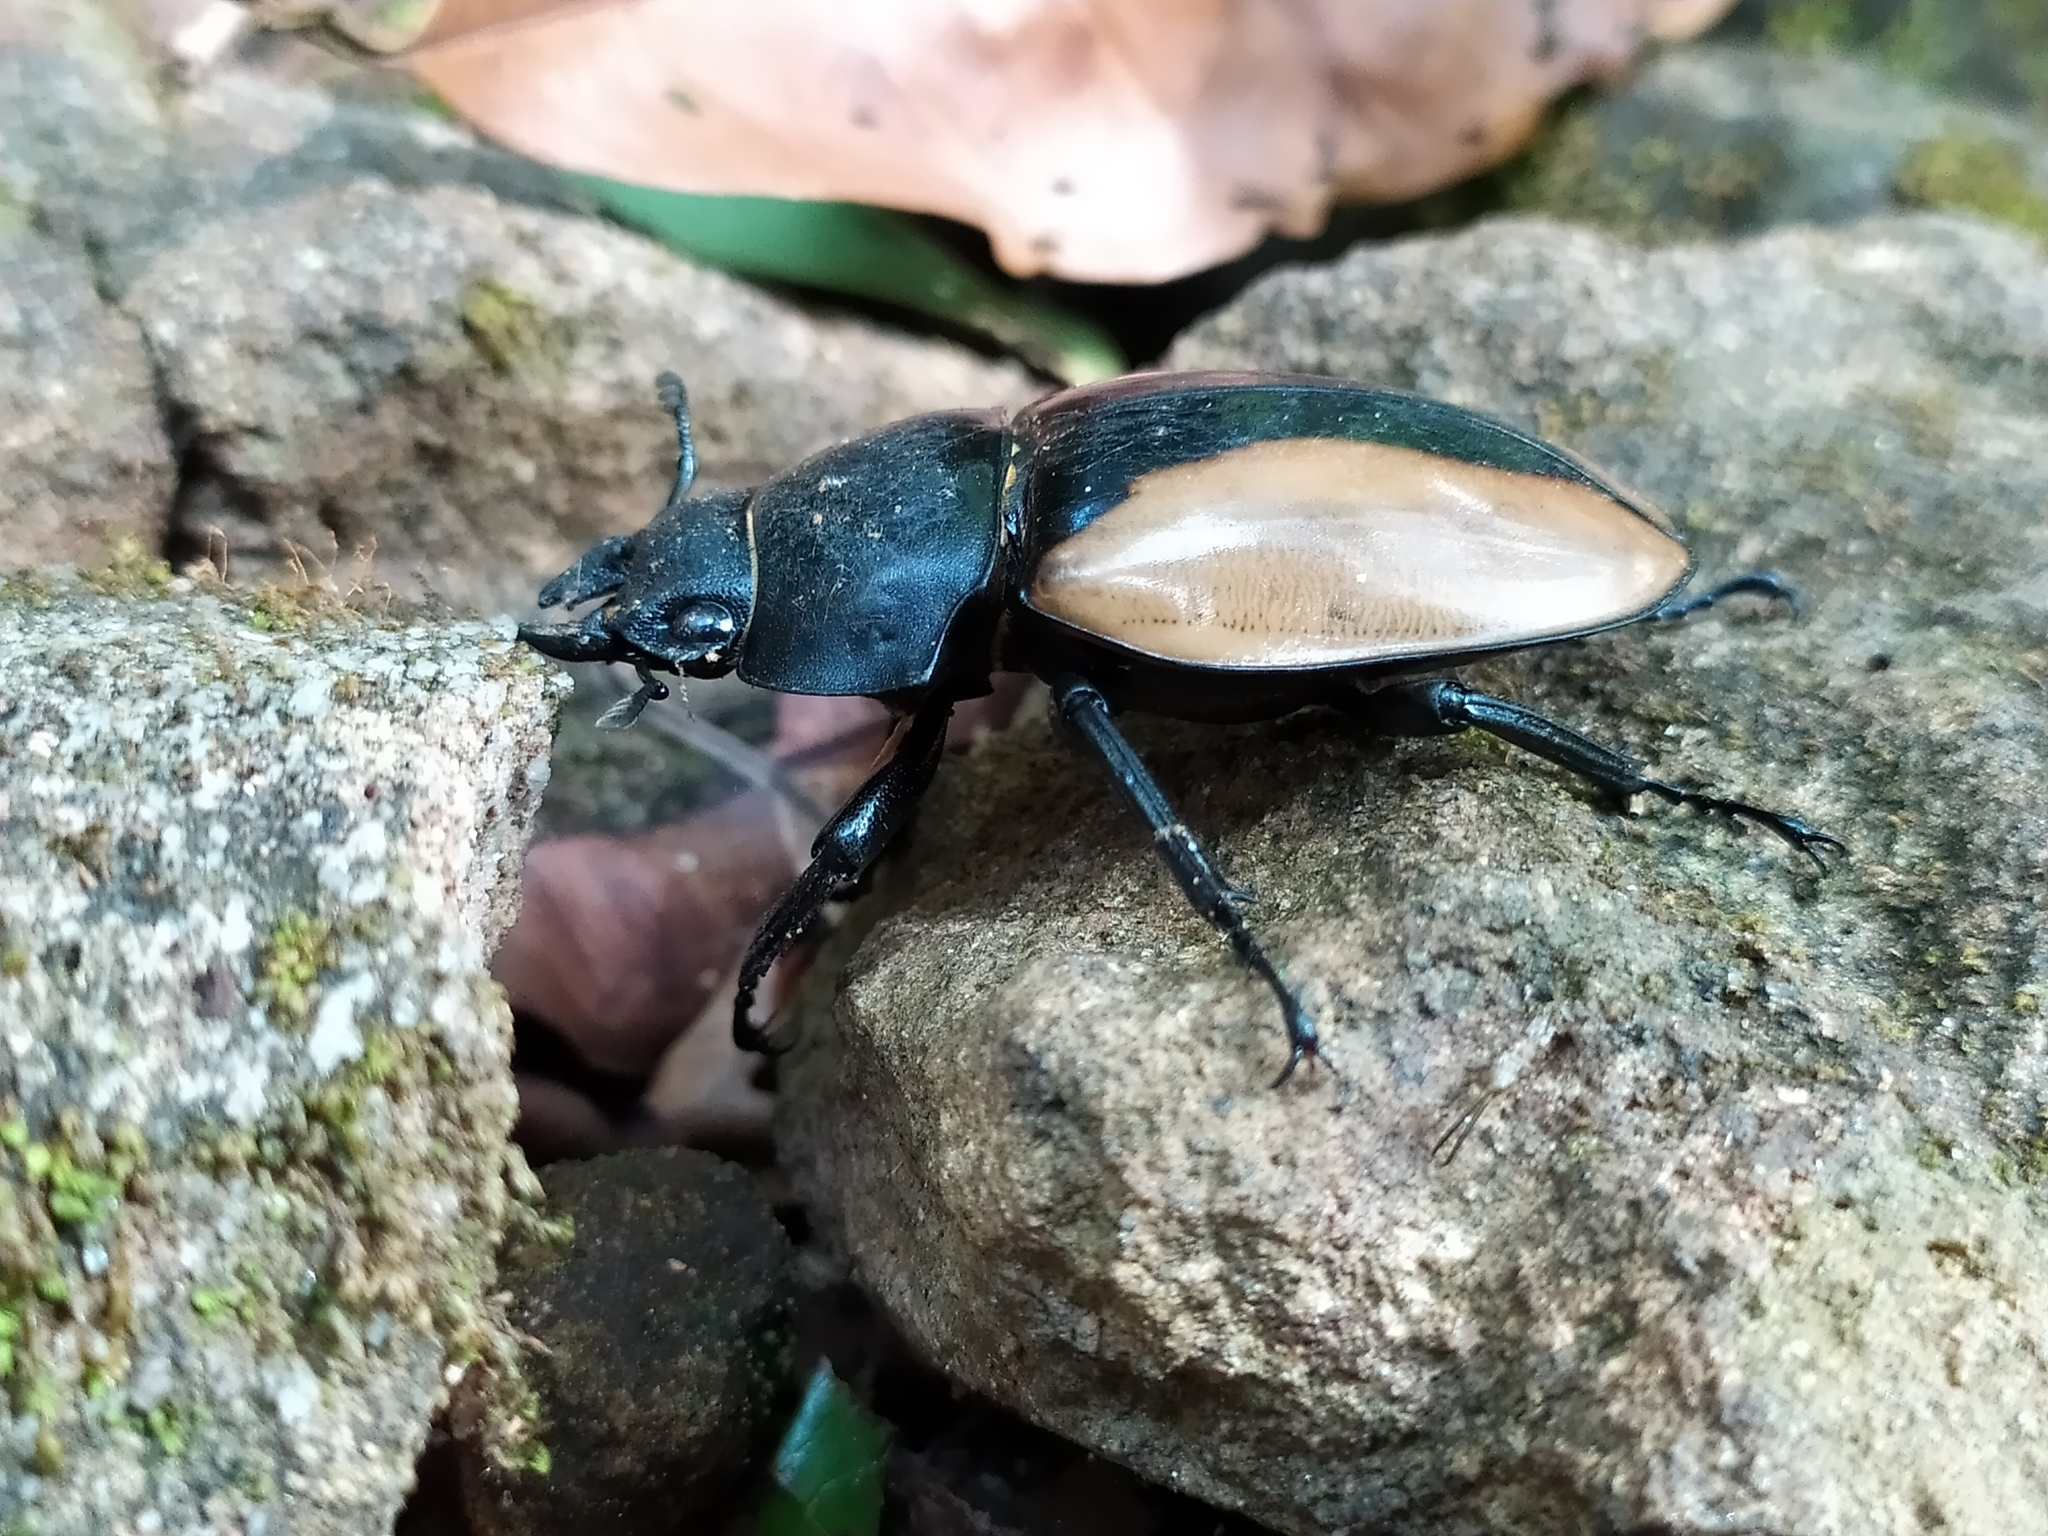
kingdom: Animalia
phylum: Arthropoda
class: Insecta
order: Coleoptera
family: Lucanidae
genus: Odontolabis
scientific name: Odontolabis burmeisteri
